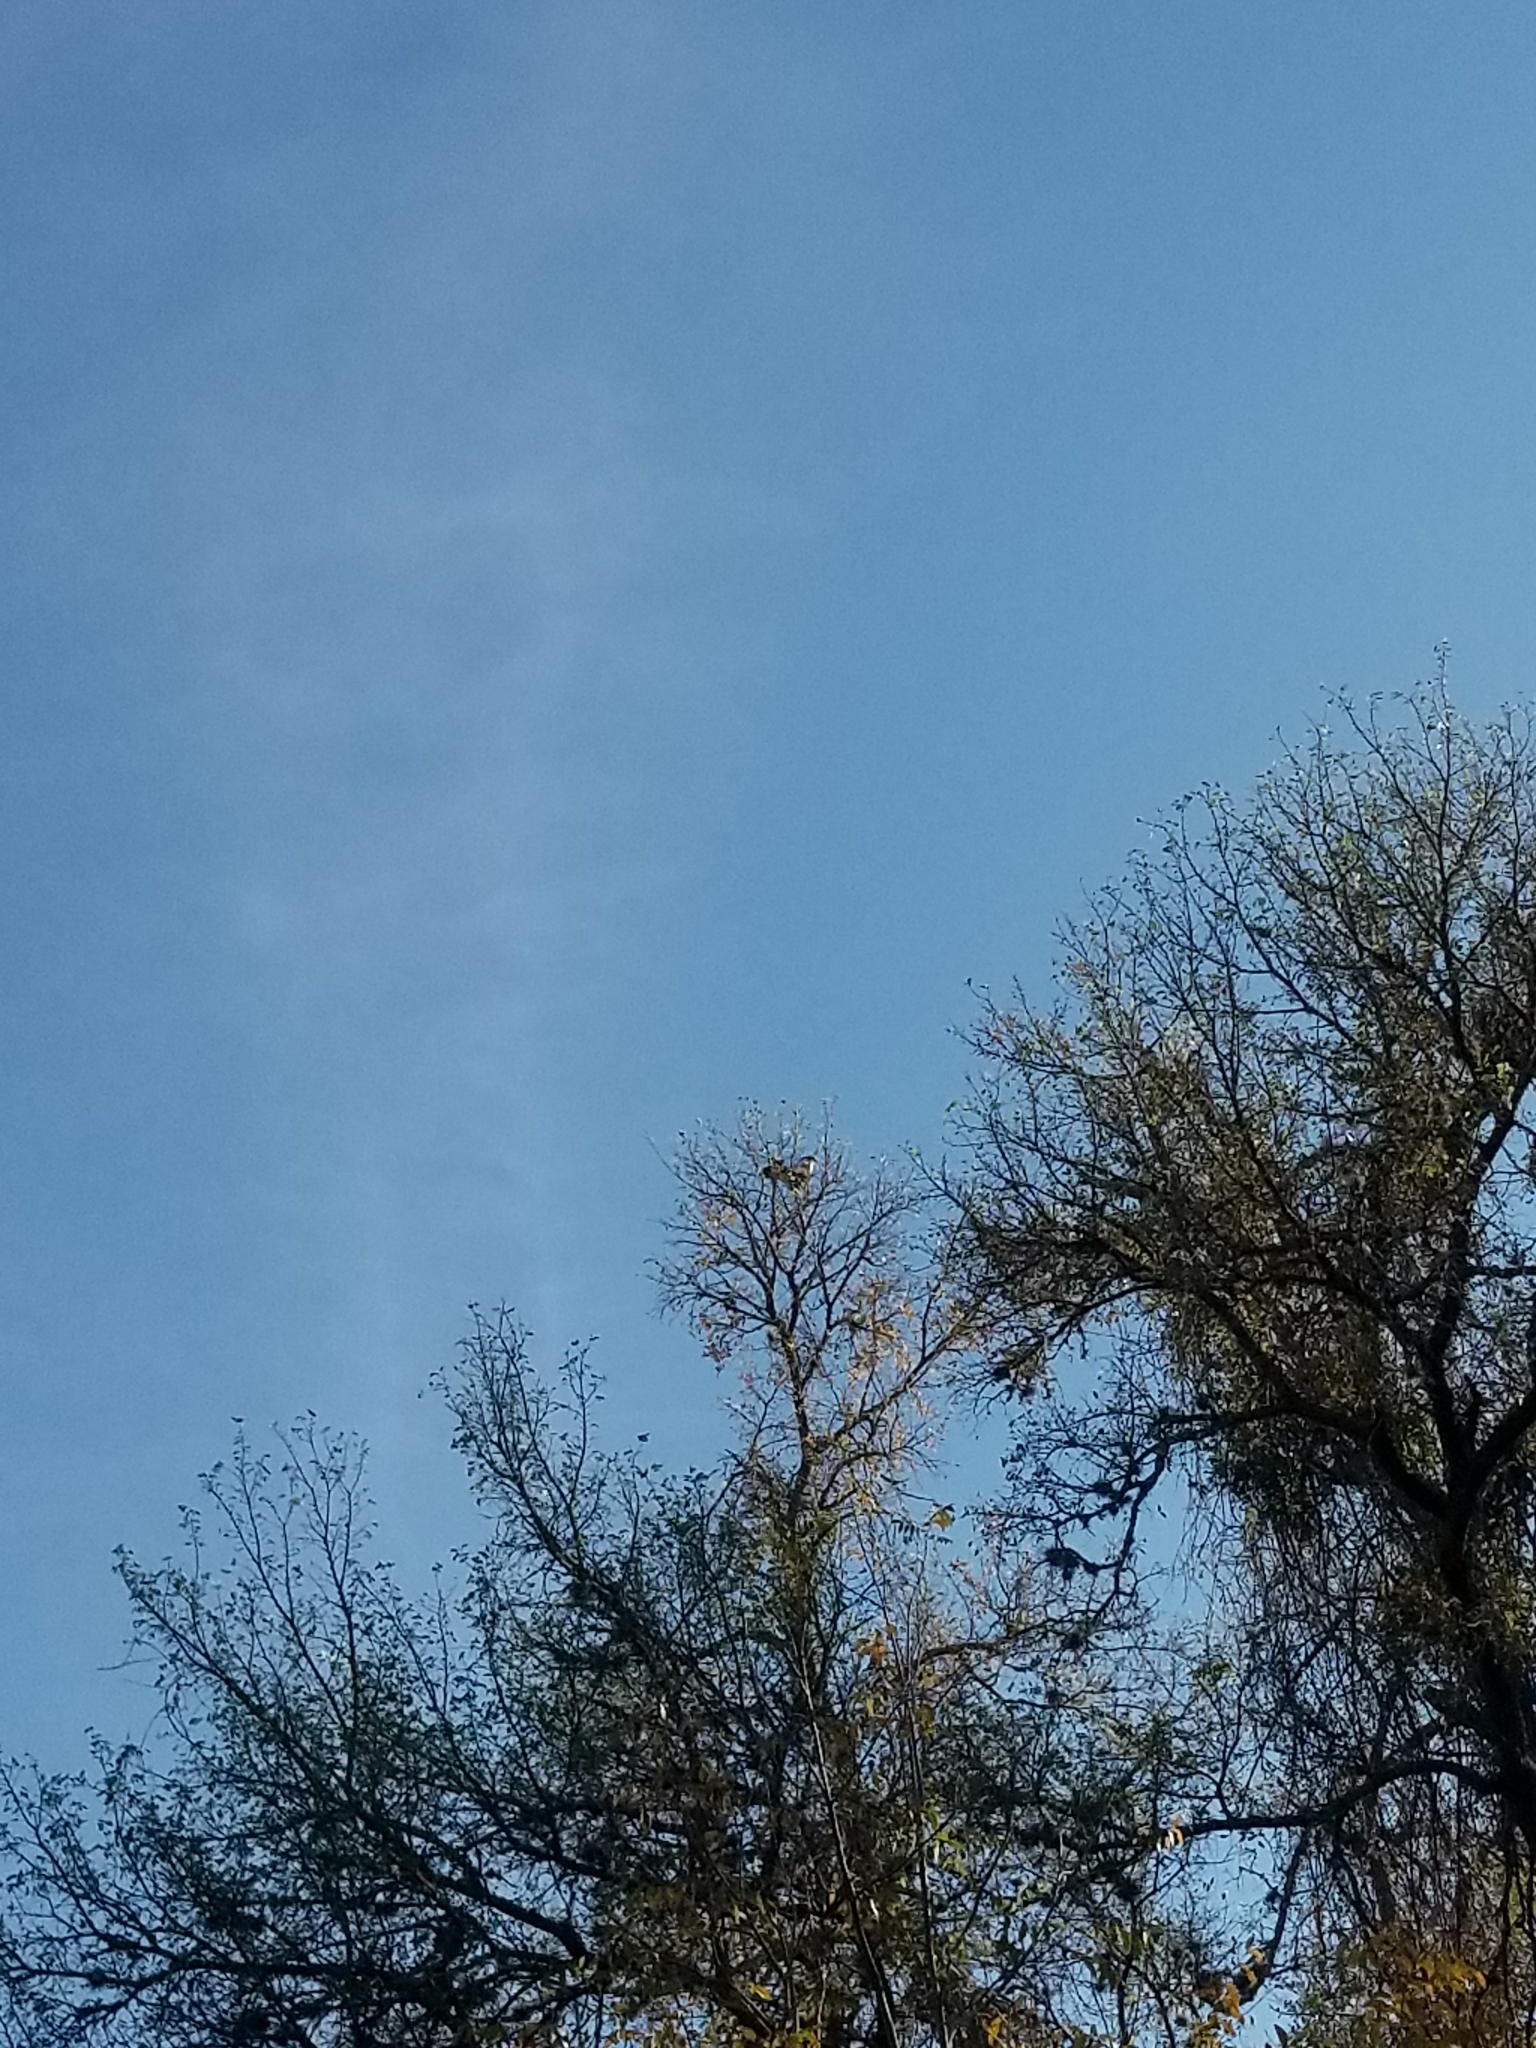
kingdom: Animalia
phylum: Chordata
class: Aves
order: Falconiformes
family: Falconidae
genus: Caracara
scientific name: Caracara plancus
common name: Southern caracara
